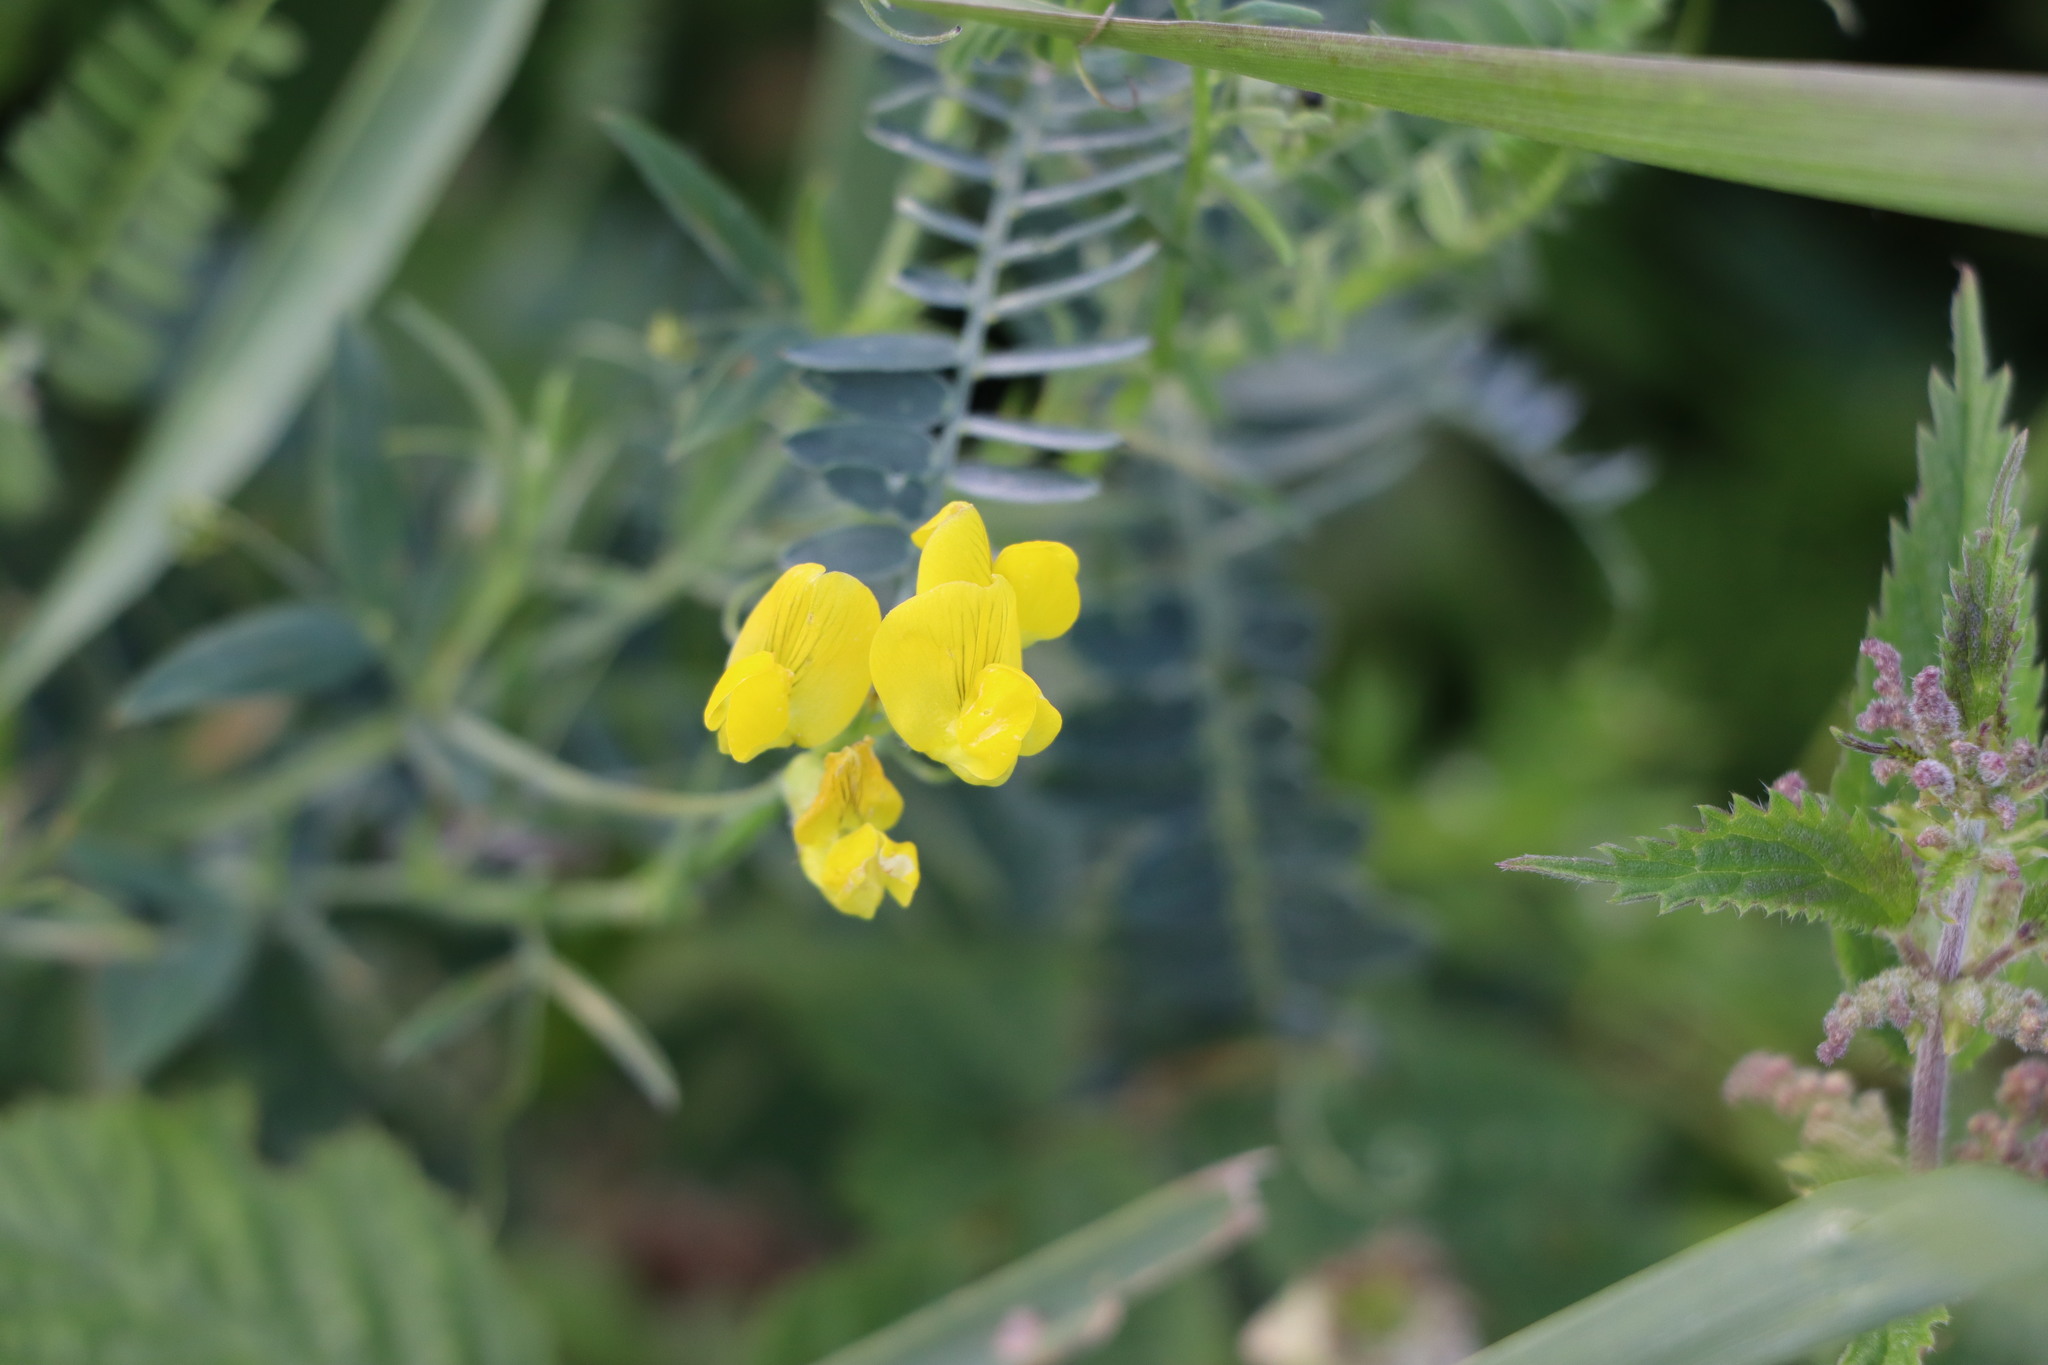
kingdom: Plantae
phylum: Tracheophyta
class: Magnoliopsida
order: Fabales
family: Fabaceae
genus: Lathyrus
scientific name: Lathyrus pratensis
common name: Meadow vetchling
